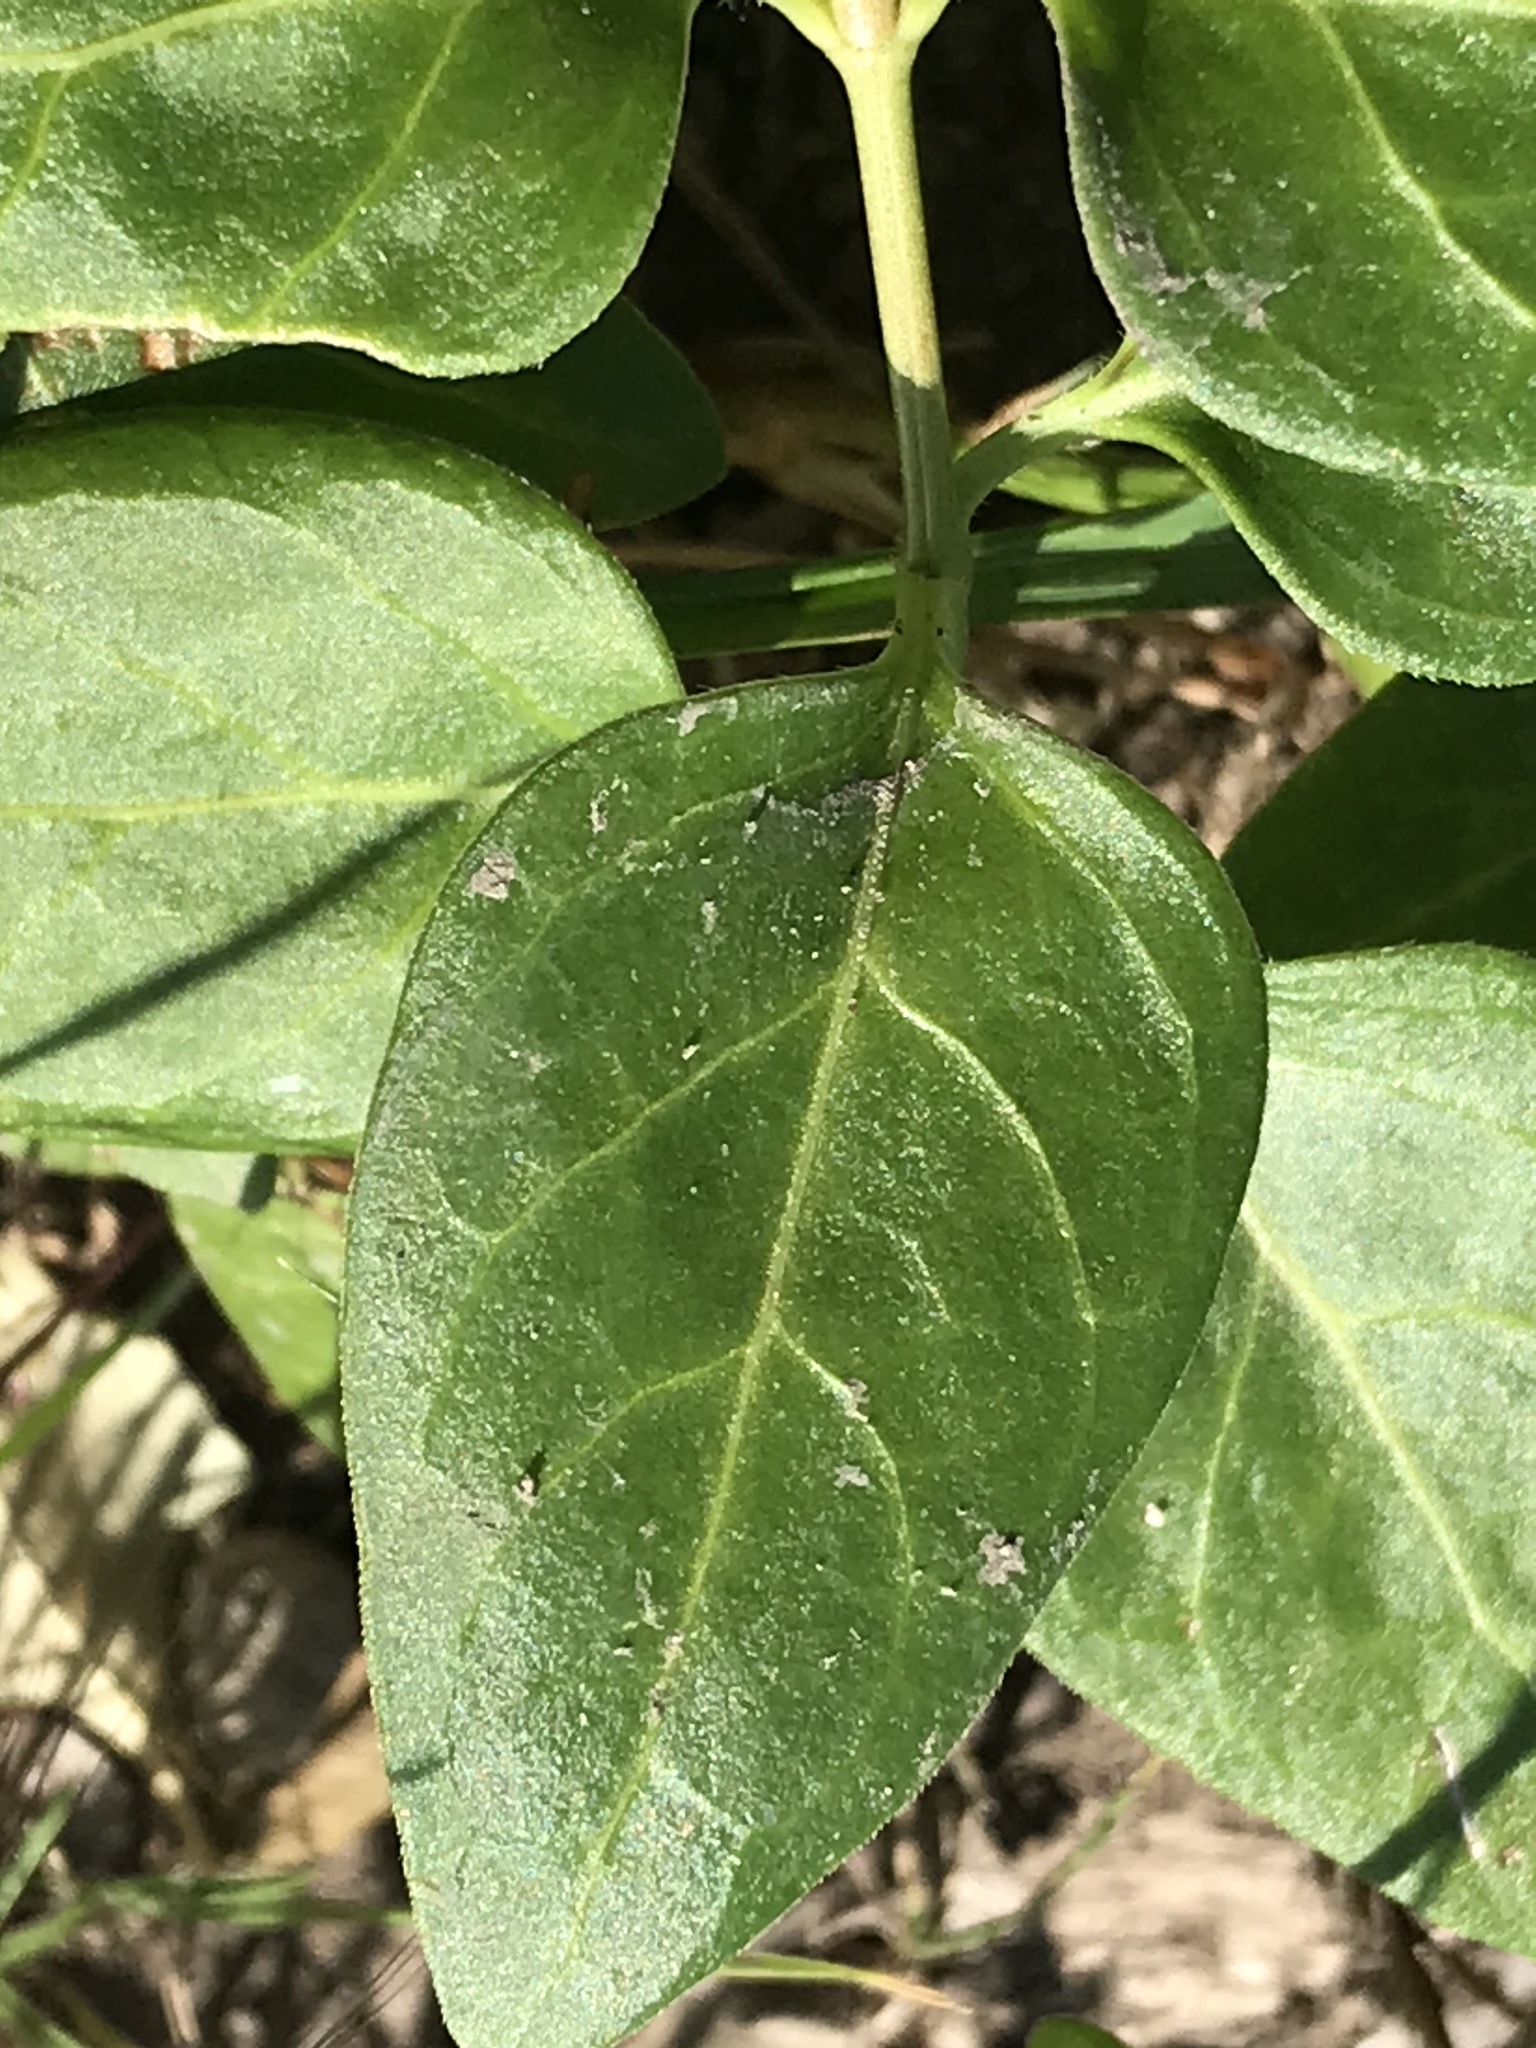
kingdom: Plantae
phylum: Tracheophyta
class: Magnoliopsida
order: Gentianales
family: Apocynaceae
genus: Vinca
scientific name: Vinca major
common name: Greater periwinkle
